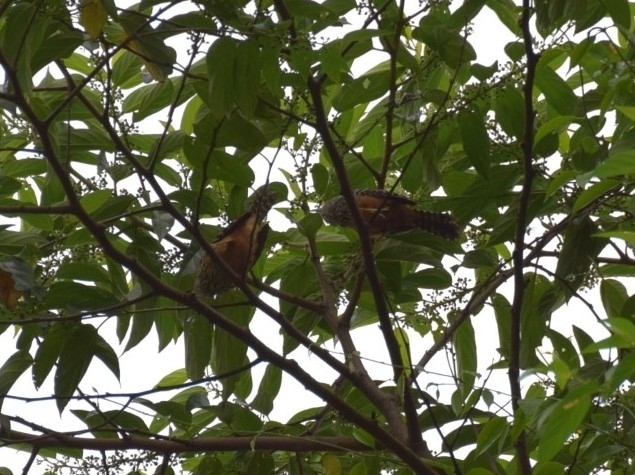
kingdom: Animalia
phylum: Chordata
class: Aves
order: Passeriformes
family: Troglodytidae
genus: Campylorhynchus
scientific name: Campylorhynchus zonatus
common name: Band-backed wren
